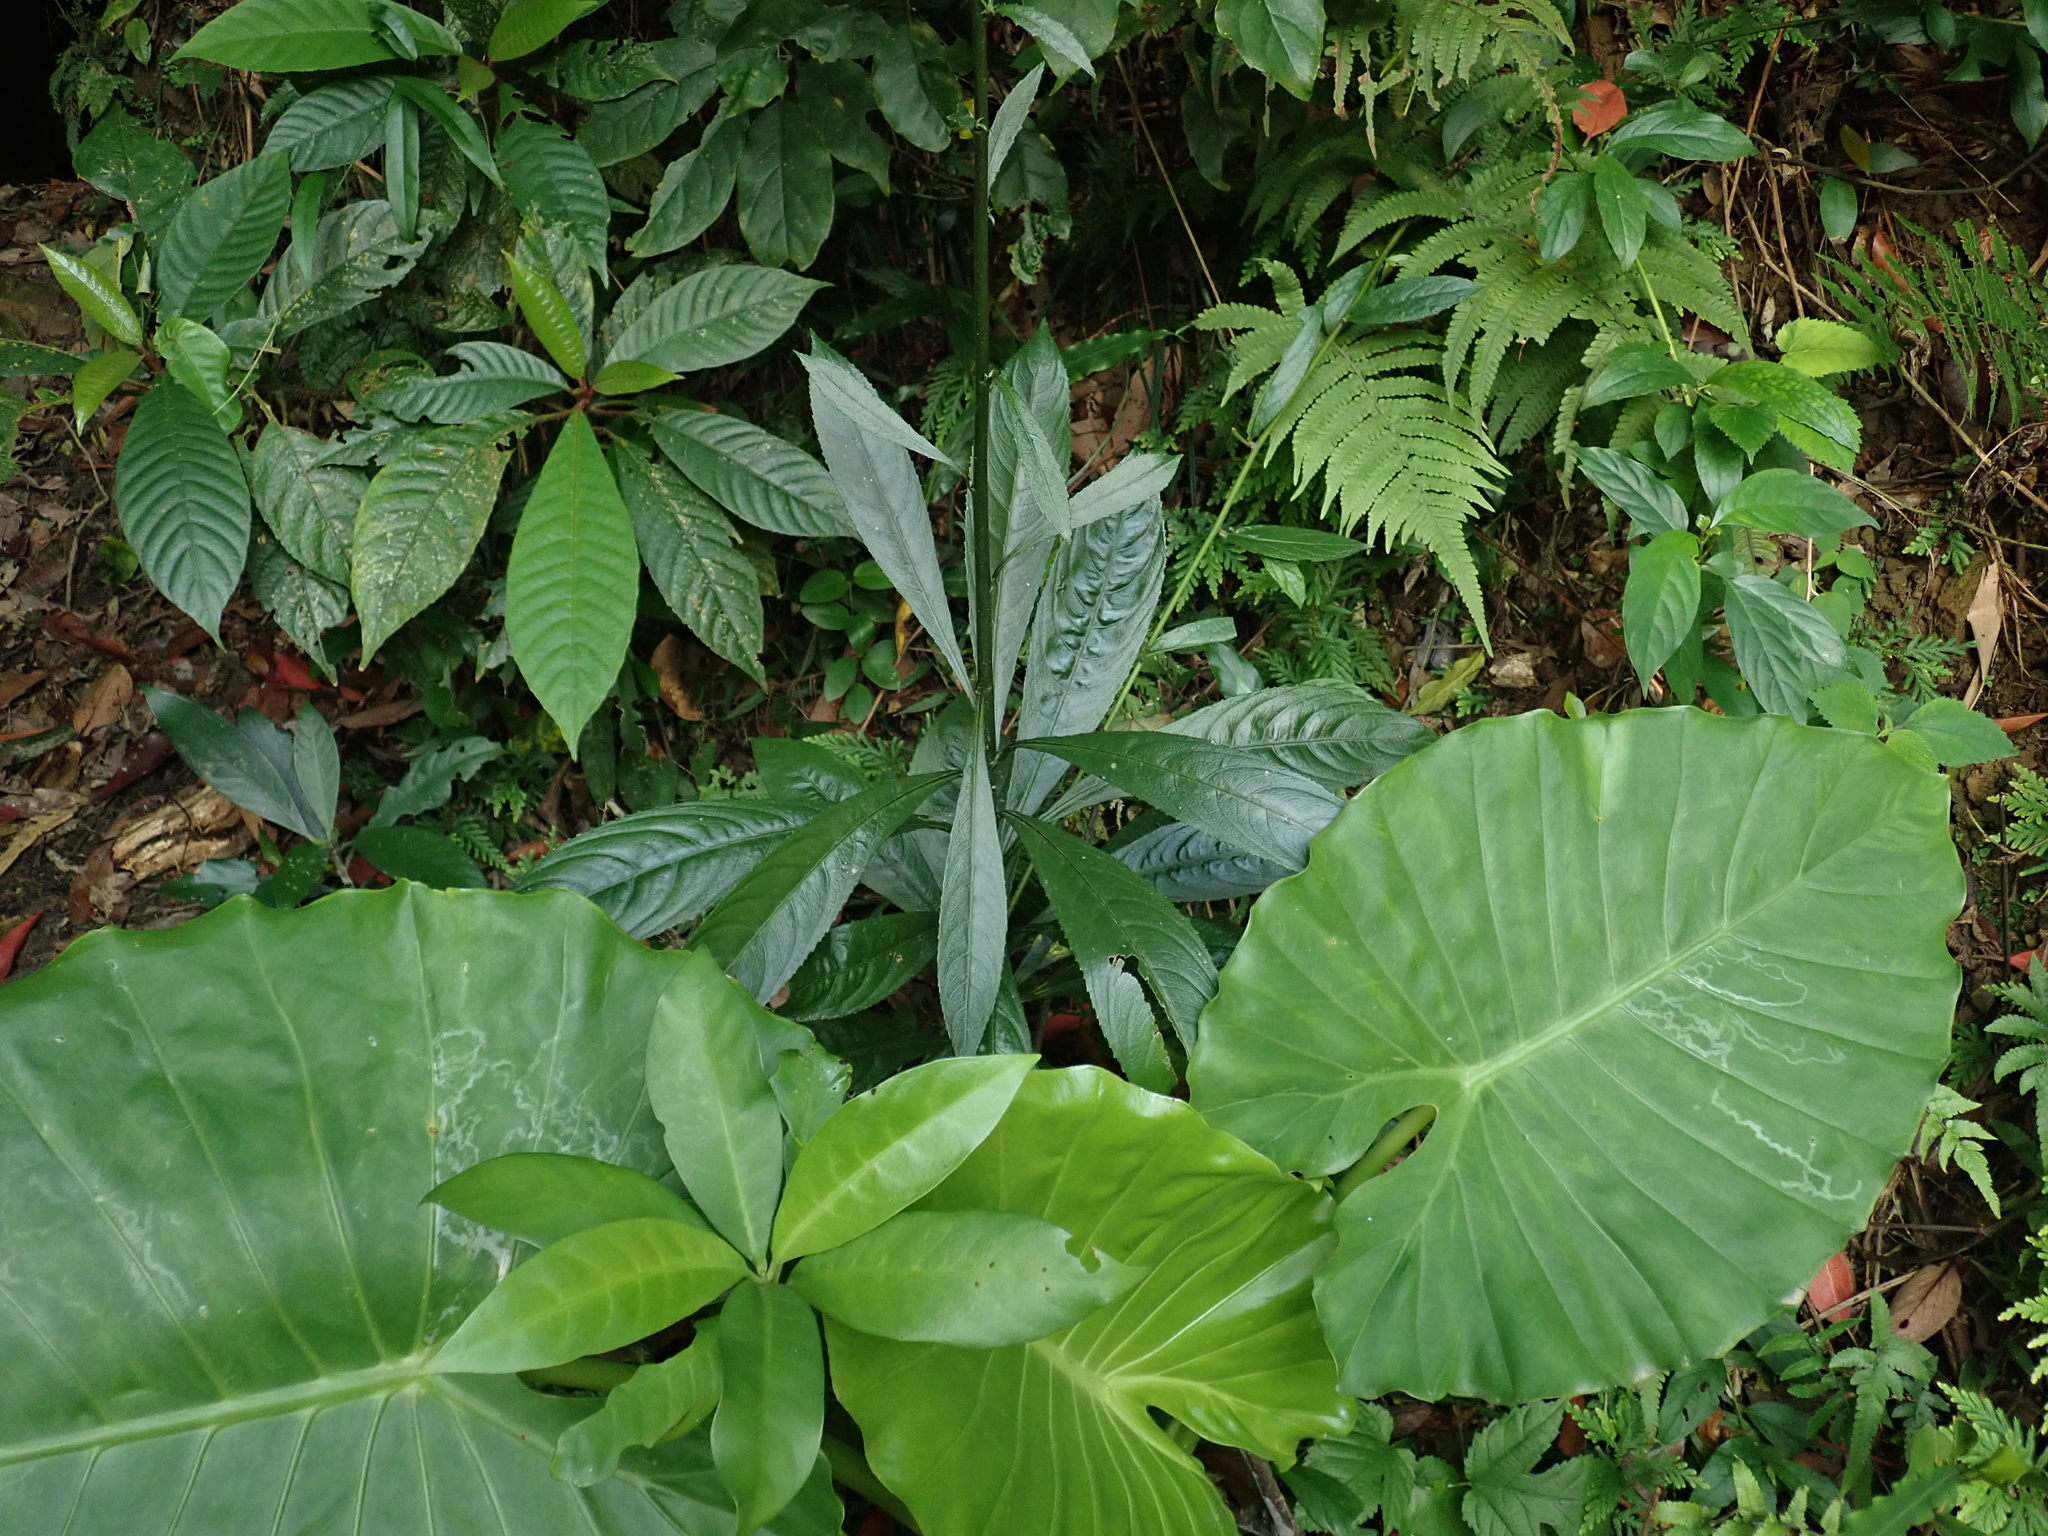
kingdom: Plantae
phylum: Tracheophyta
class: Magnoliopsida
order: Asterales
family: Asteraceae
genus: Blumea
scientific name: Blumea lanceolaria
